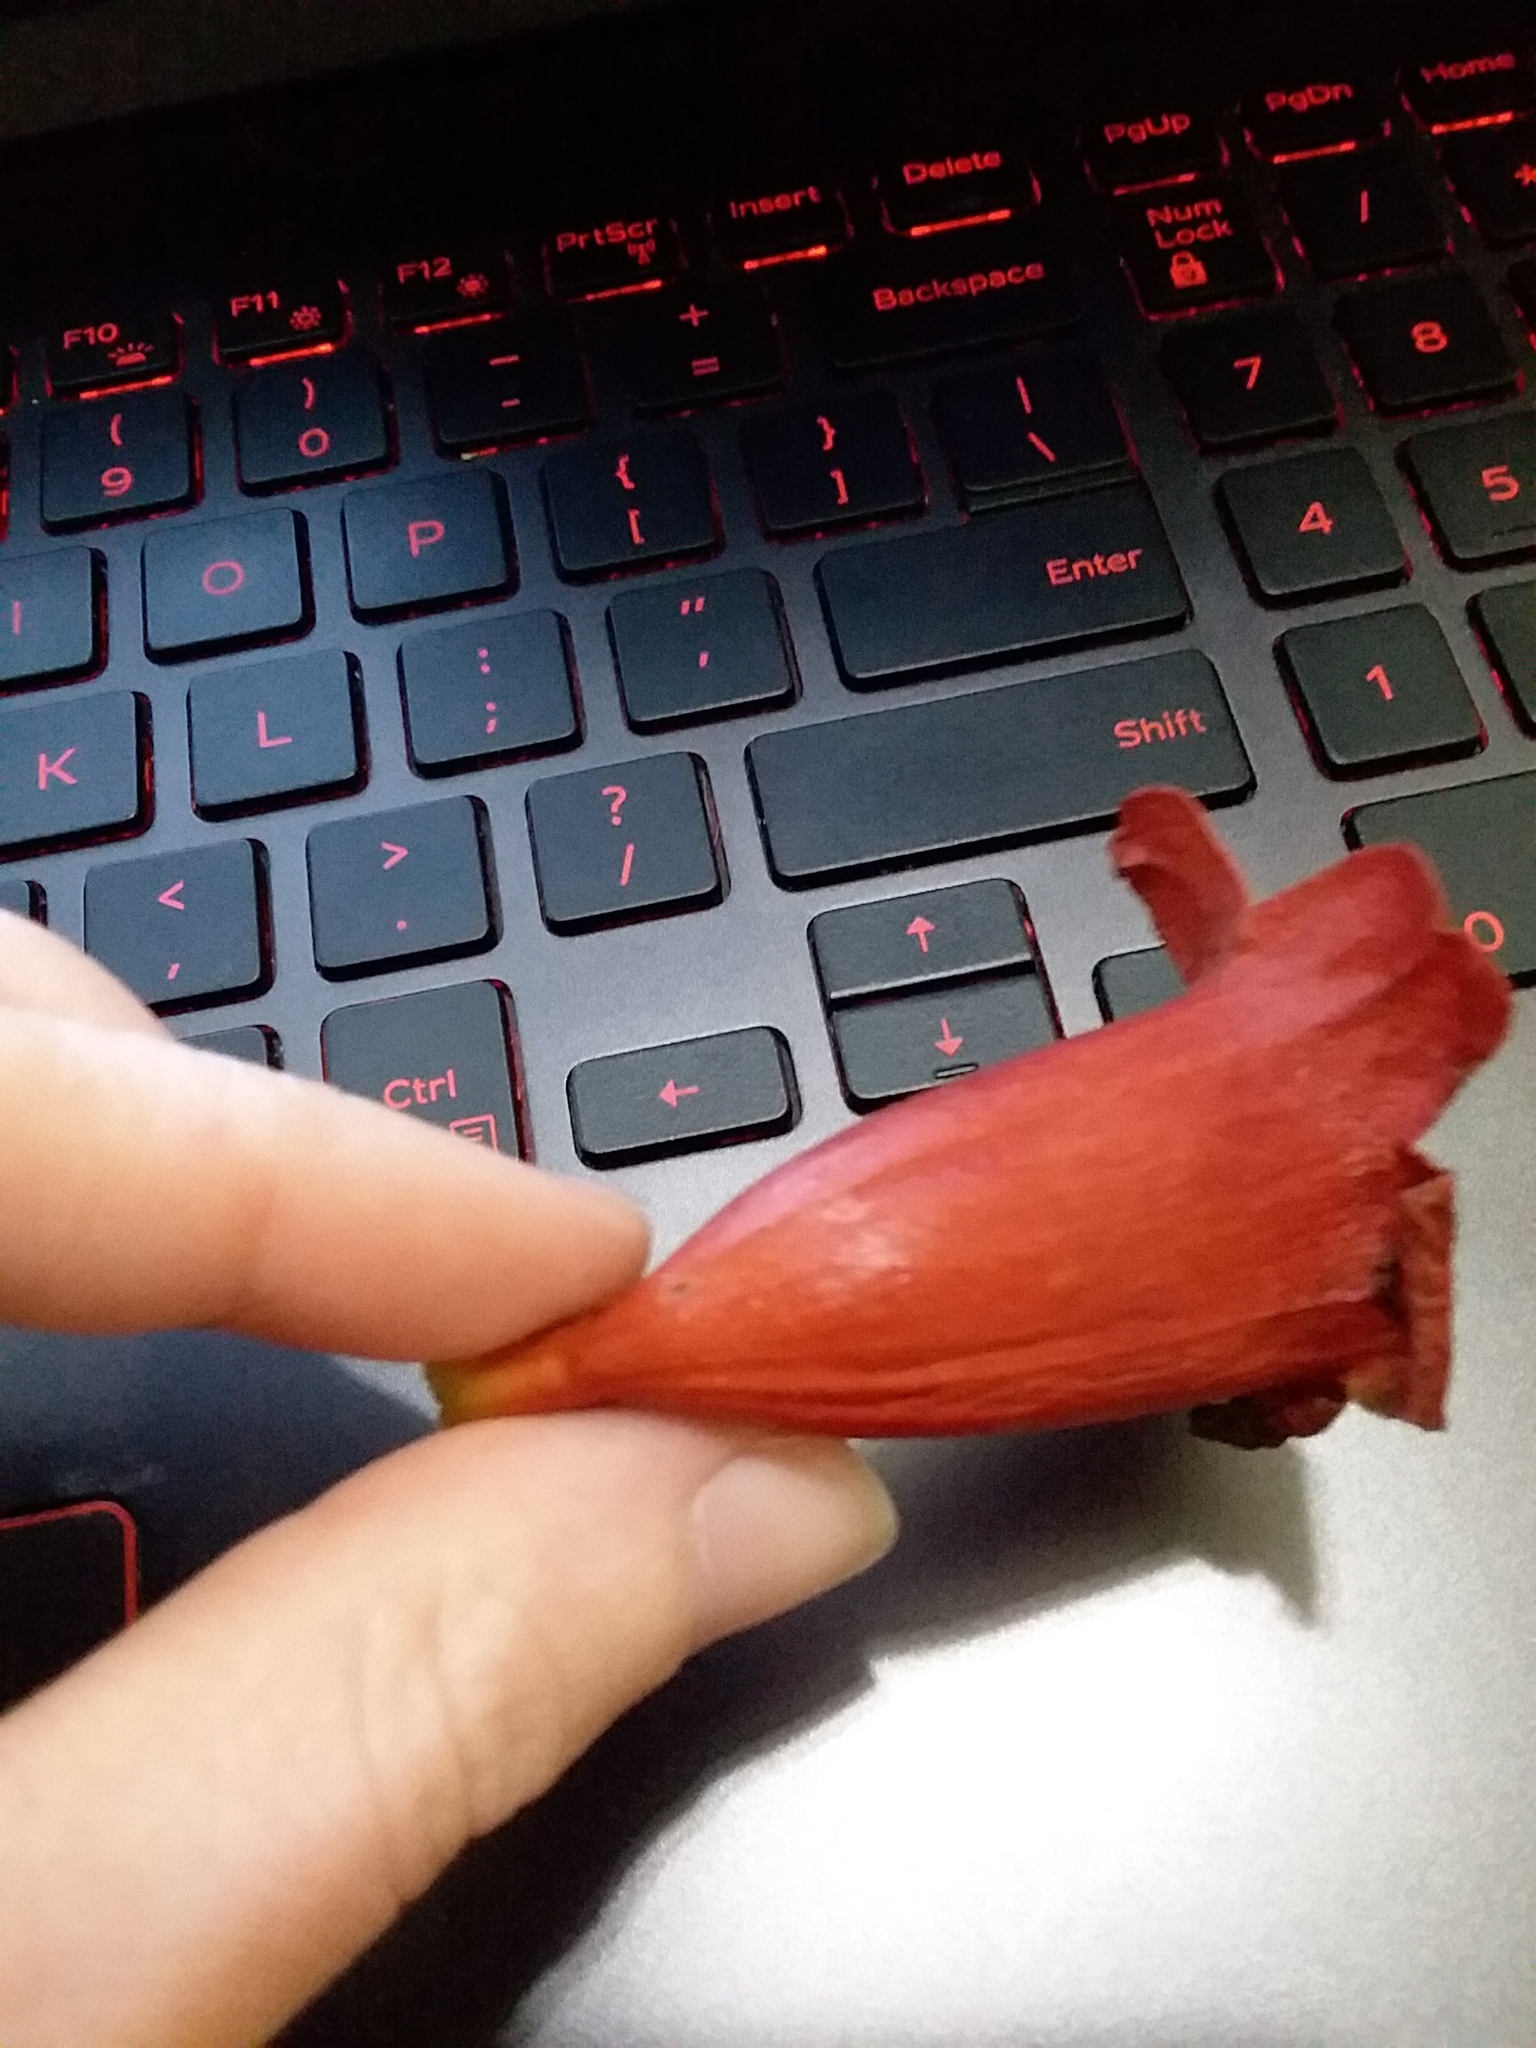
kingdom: Plantae
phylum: Tracheophyta
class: Magnoliopsida
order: Lamiales
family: Bignoniaceae
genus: Bignonia
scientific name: Bignonia capreolata
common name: Crossvine
